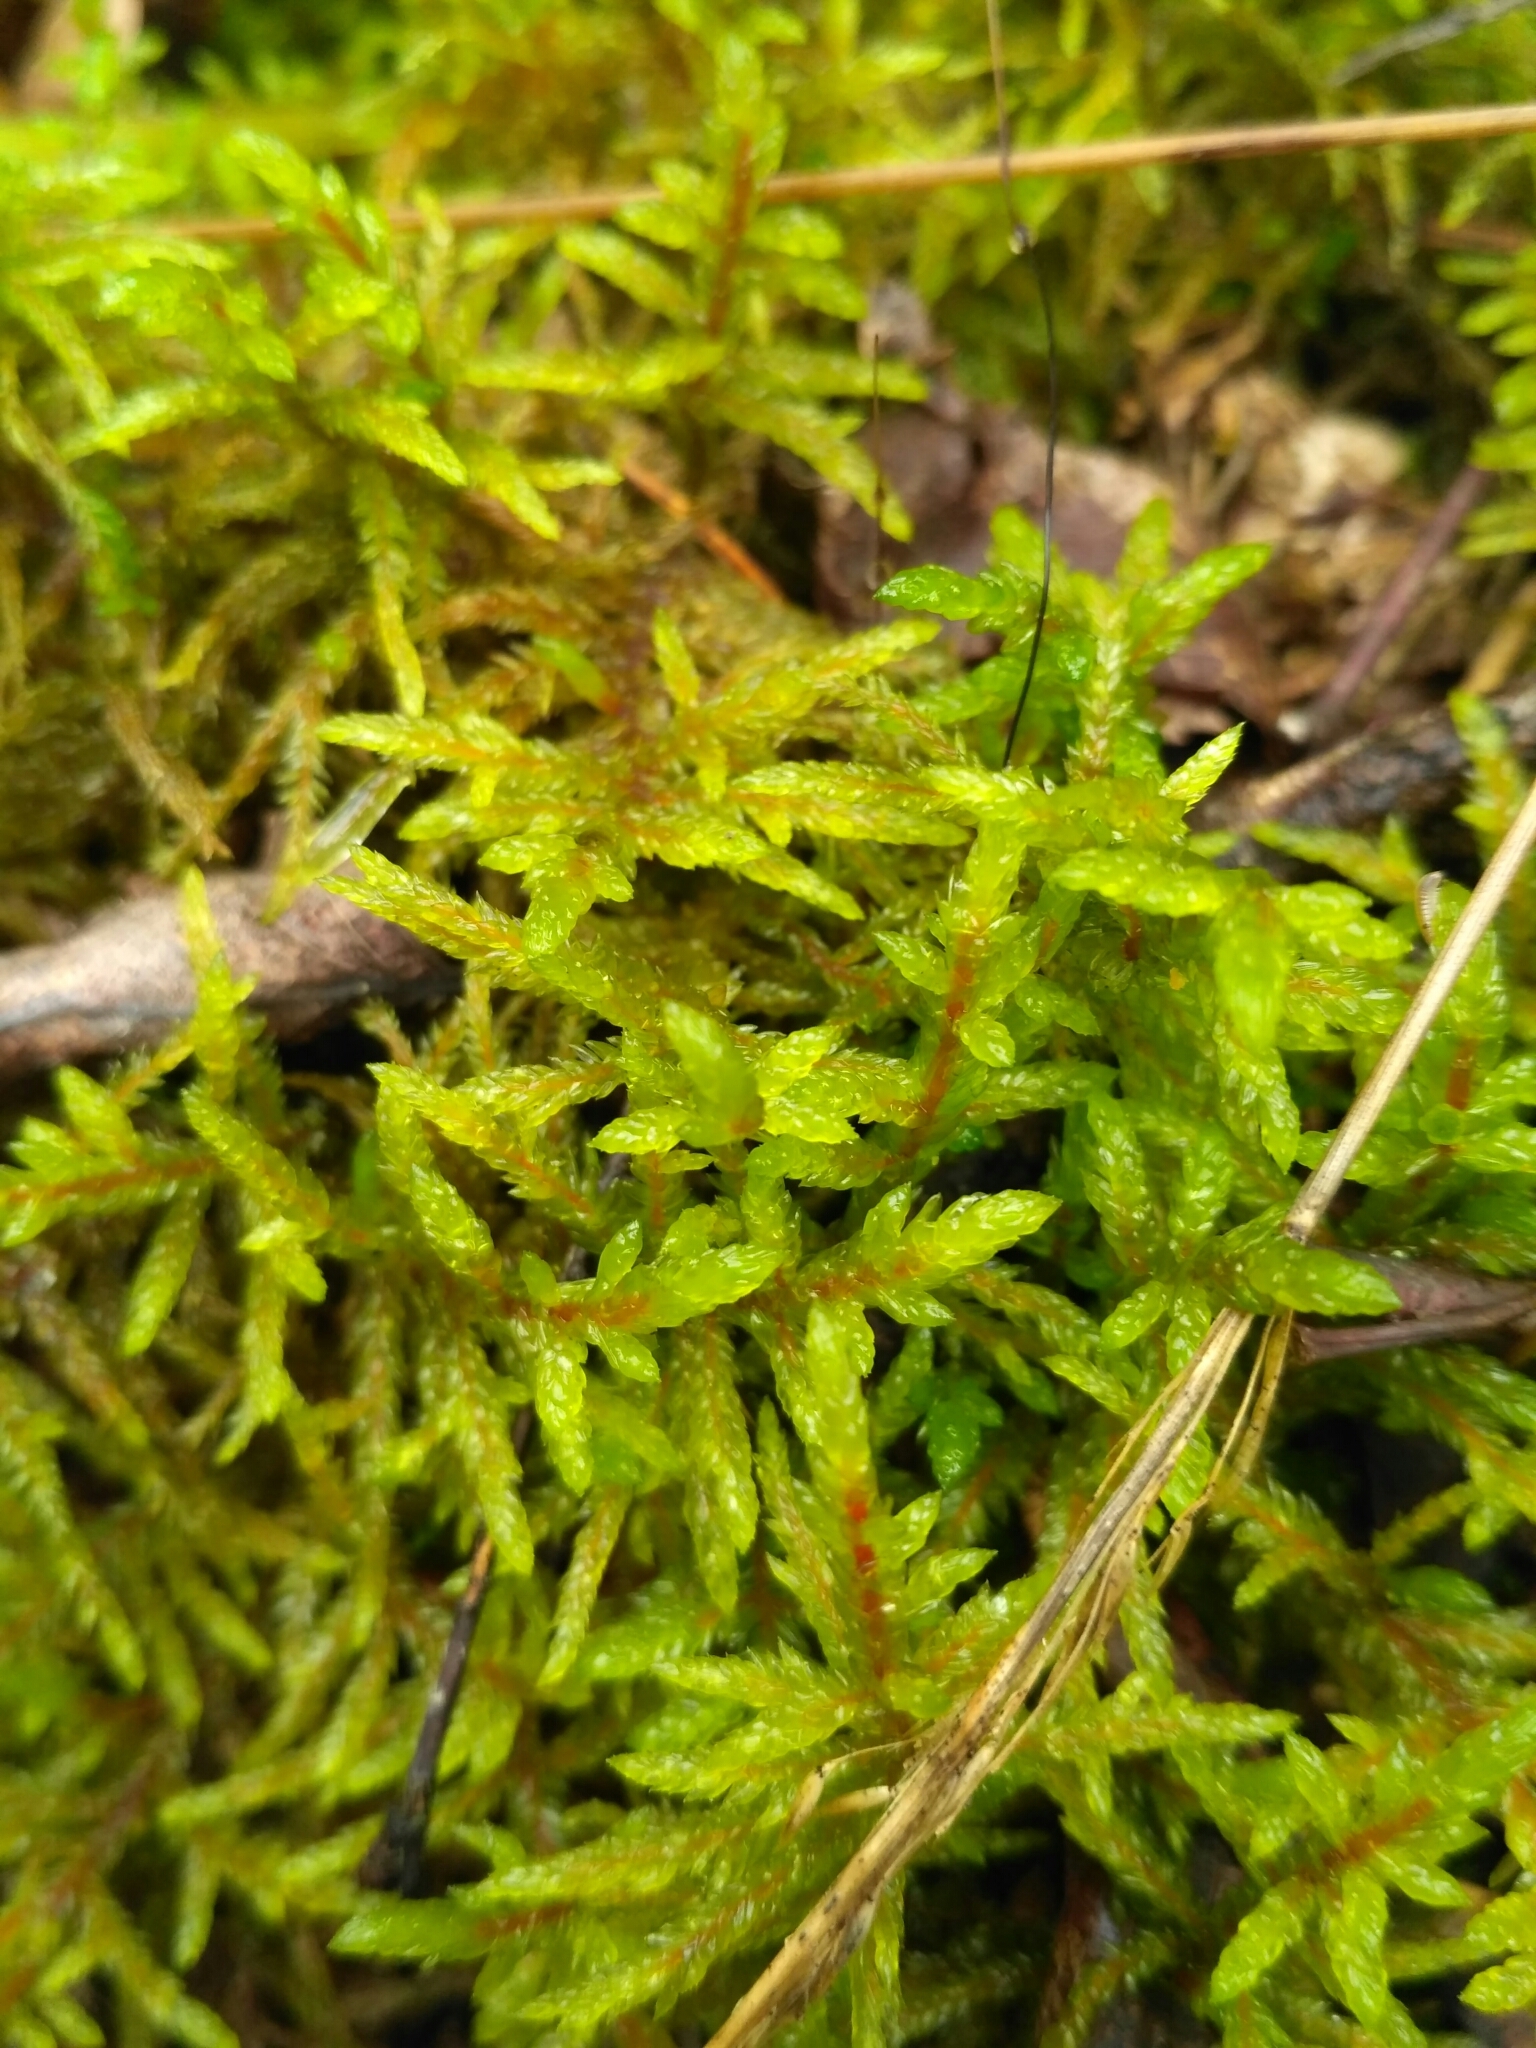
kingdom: Plantae
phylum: Bryophyta
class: Bryopsida
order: Hypnales
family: Hylocomiaceae
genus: Pleurozium
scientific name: Pleurozium schreberi
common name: Red-stemmed feather moss
